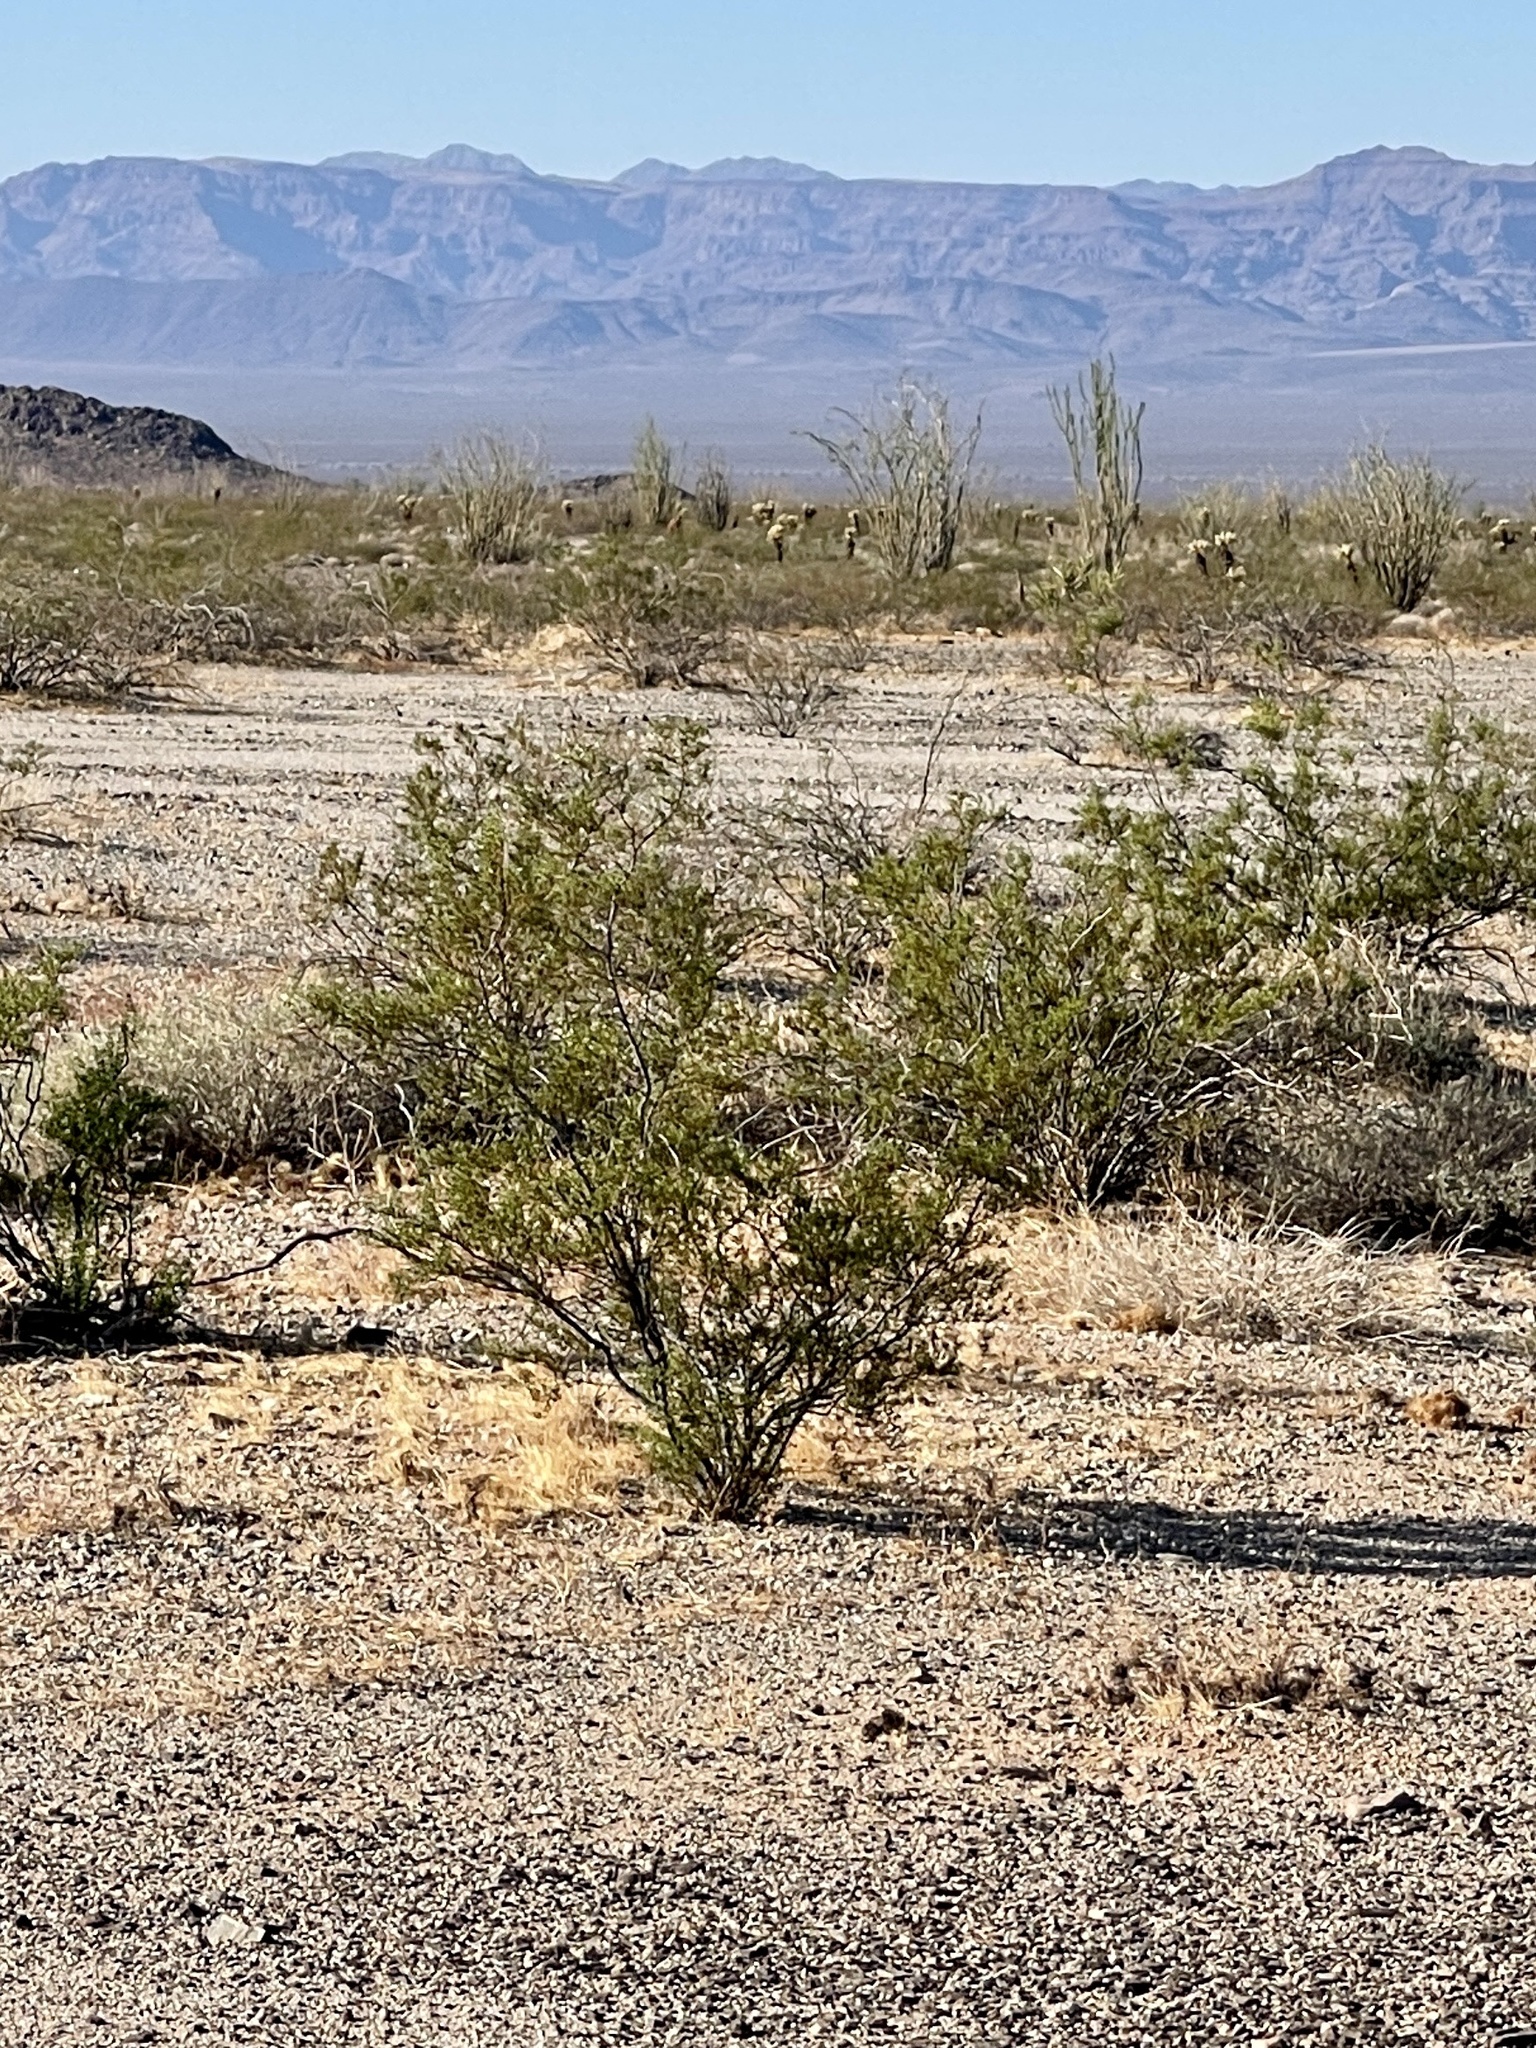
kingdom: Plantae
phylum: Tracheophyta
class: Magnoliopsida
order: Zygophyllales
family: Zygophyllaceae
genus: Larrea
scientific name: Larrea tridentata
